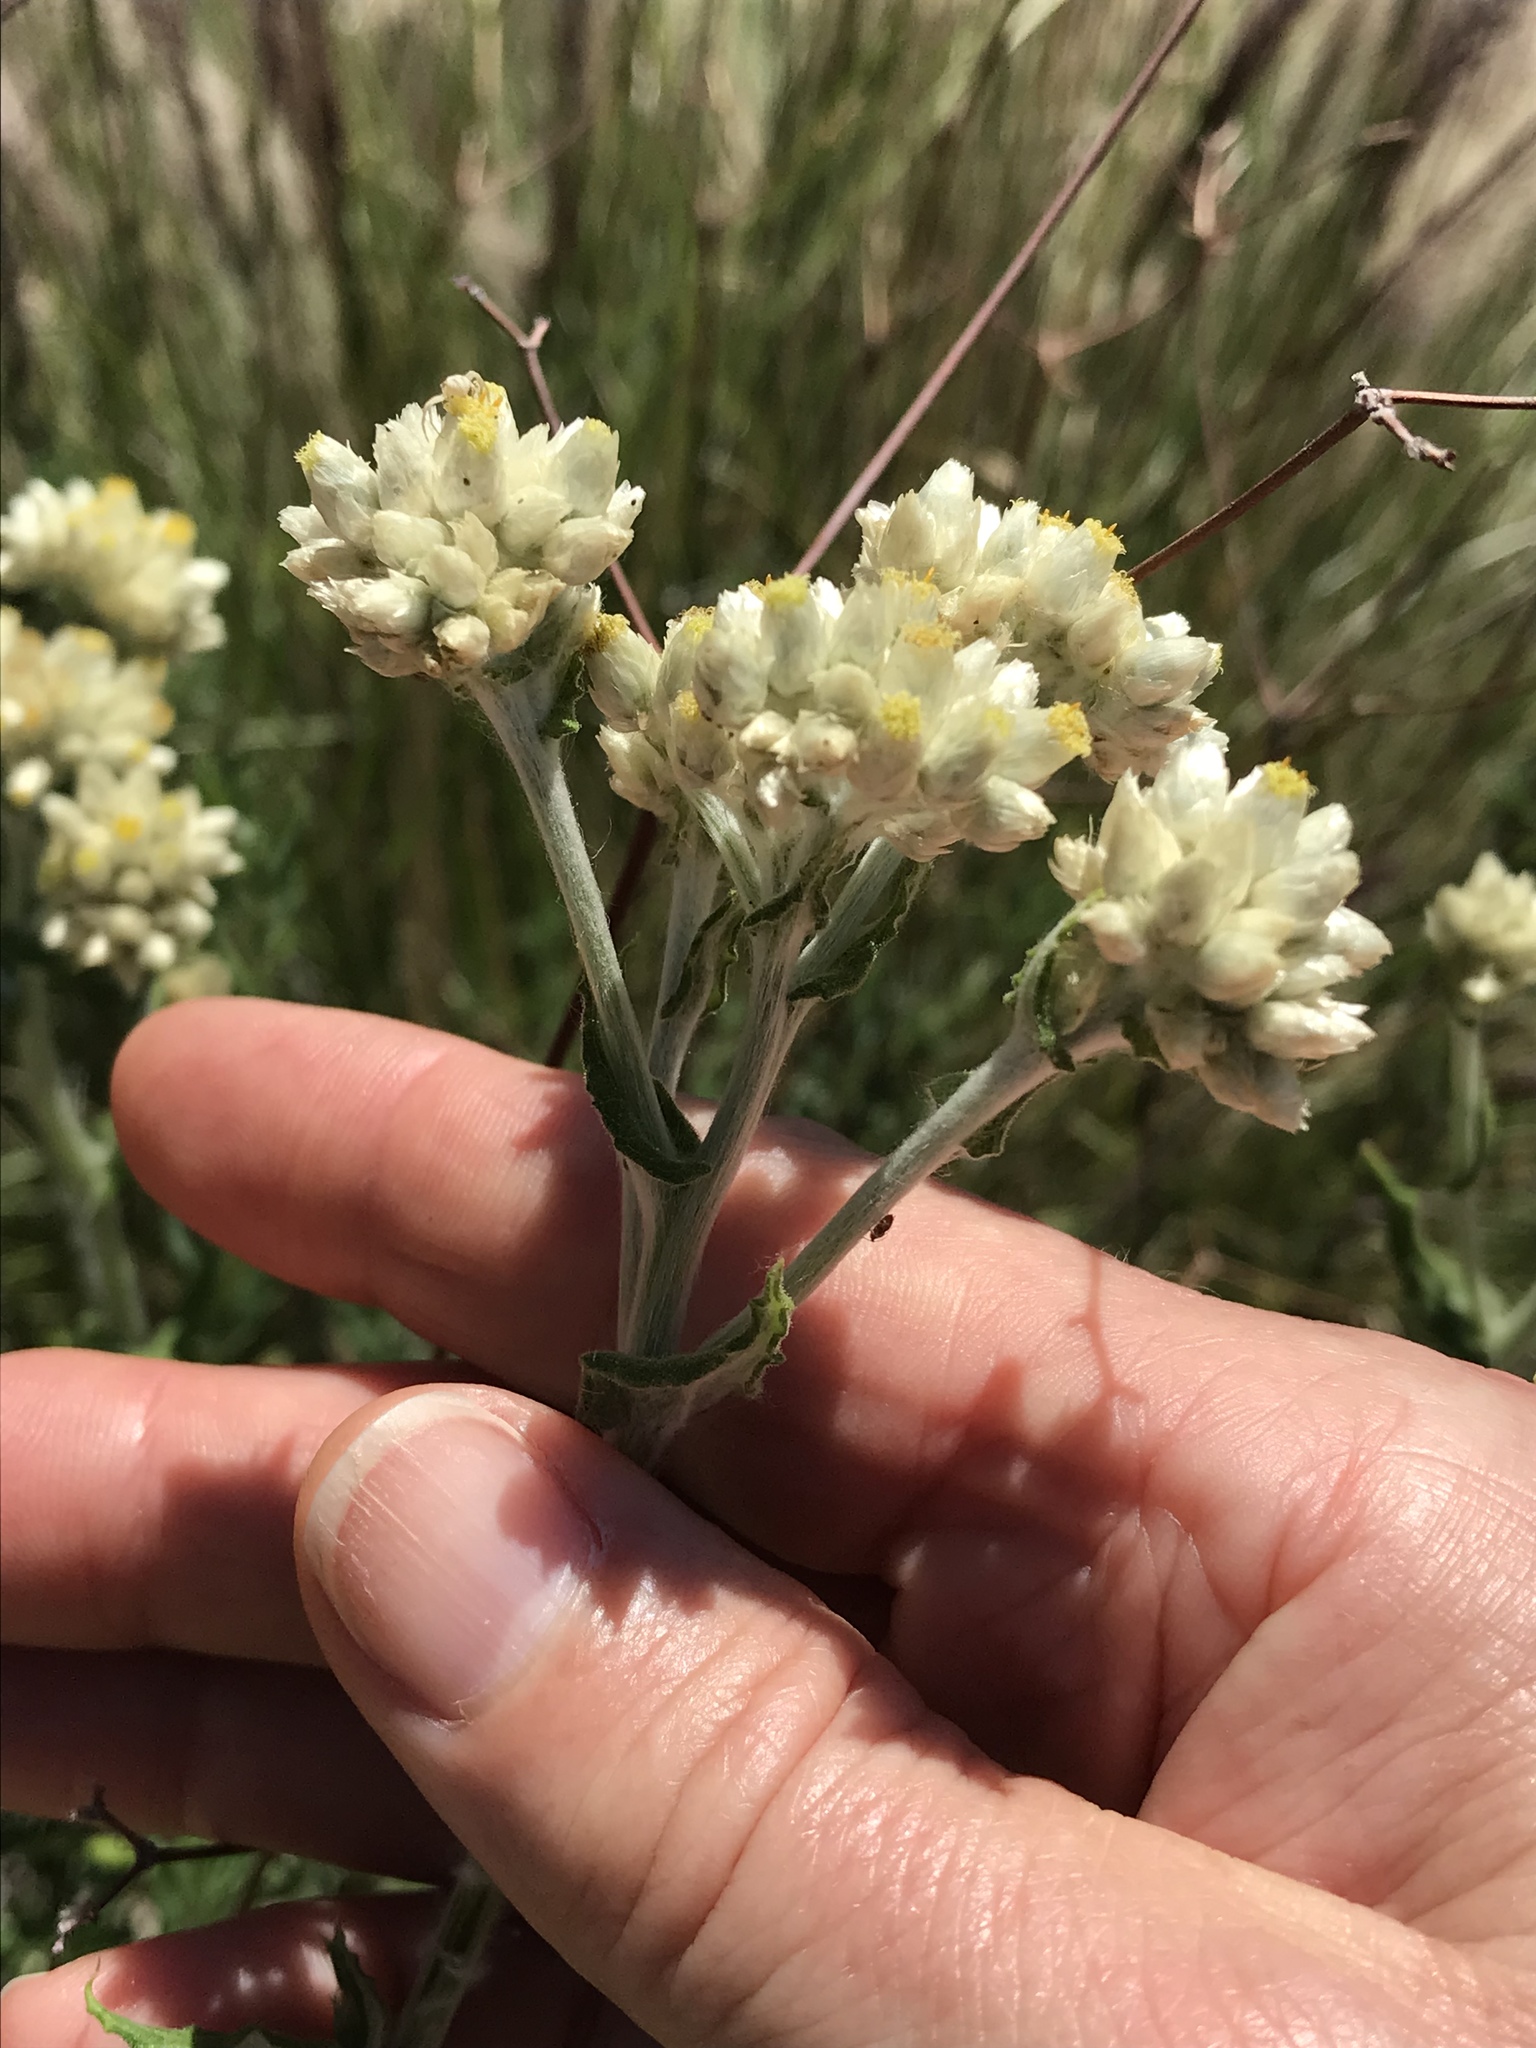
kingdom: Plantae
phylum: Tracheophyta
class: Magnoliopsida
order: Asterales
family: Asteraceae
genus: Pseudognaphalium
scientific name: Pseudognaphalium biolettii
